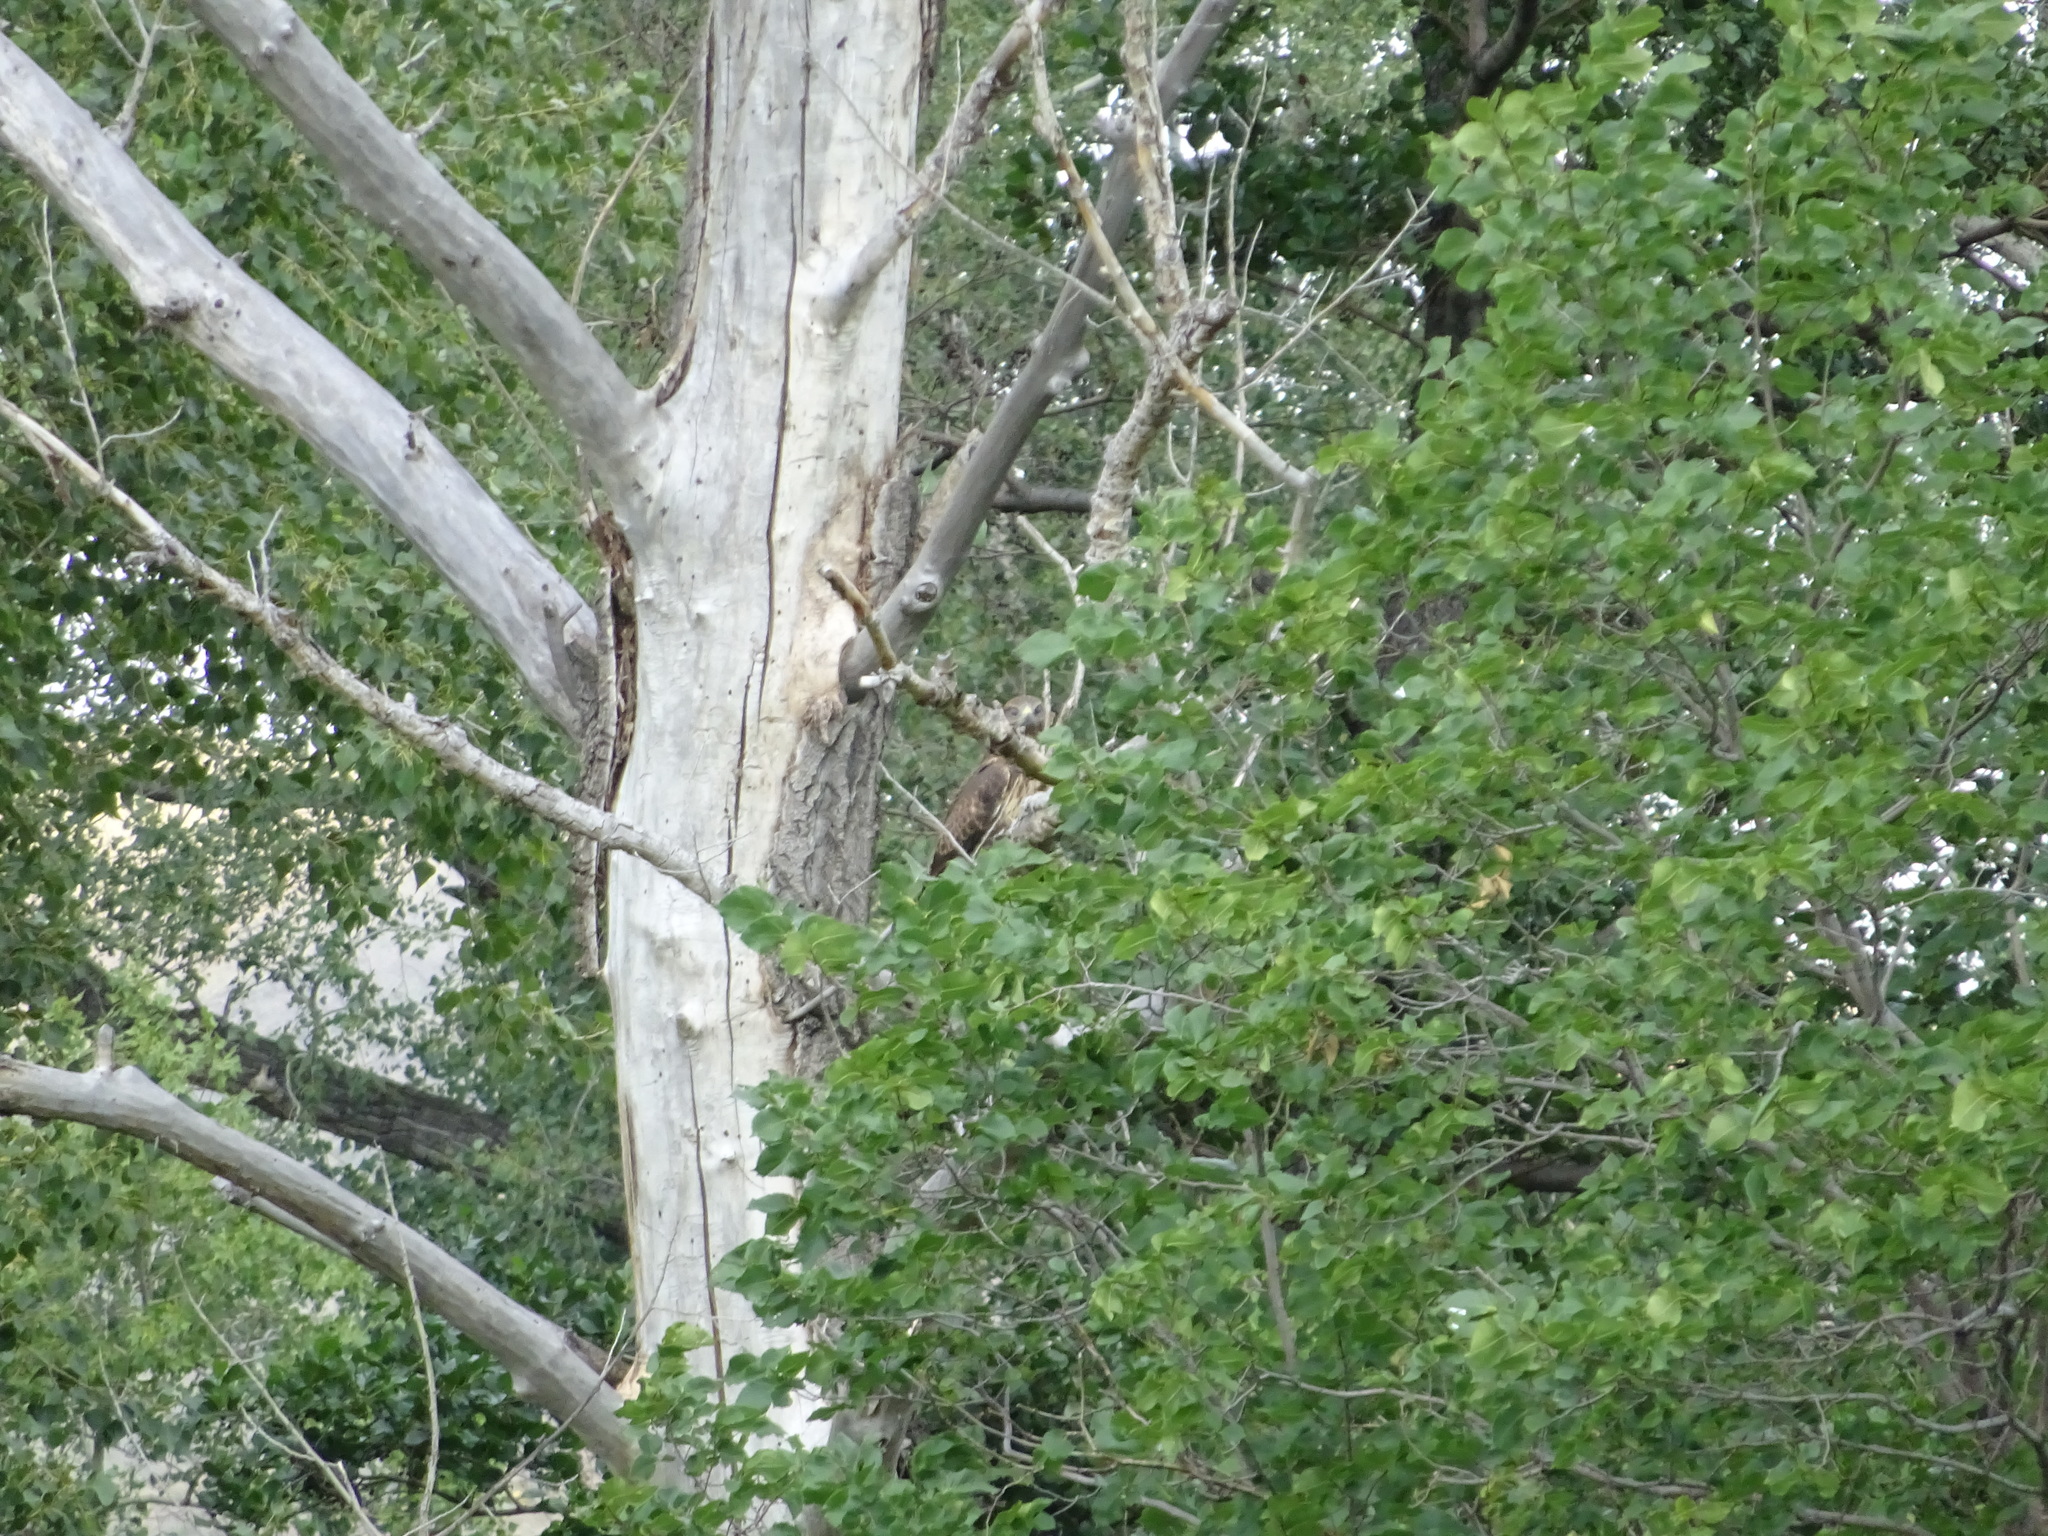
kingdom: Animalia
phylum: Chordata
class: Aves
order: Accipitriformes
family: Accipitridae
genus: Buteo
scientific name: Buteo buteo
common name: Common buzzard
